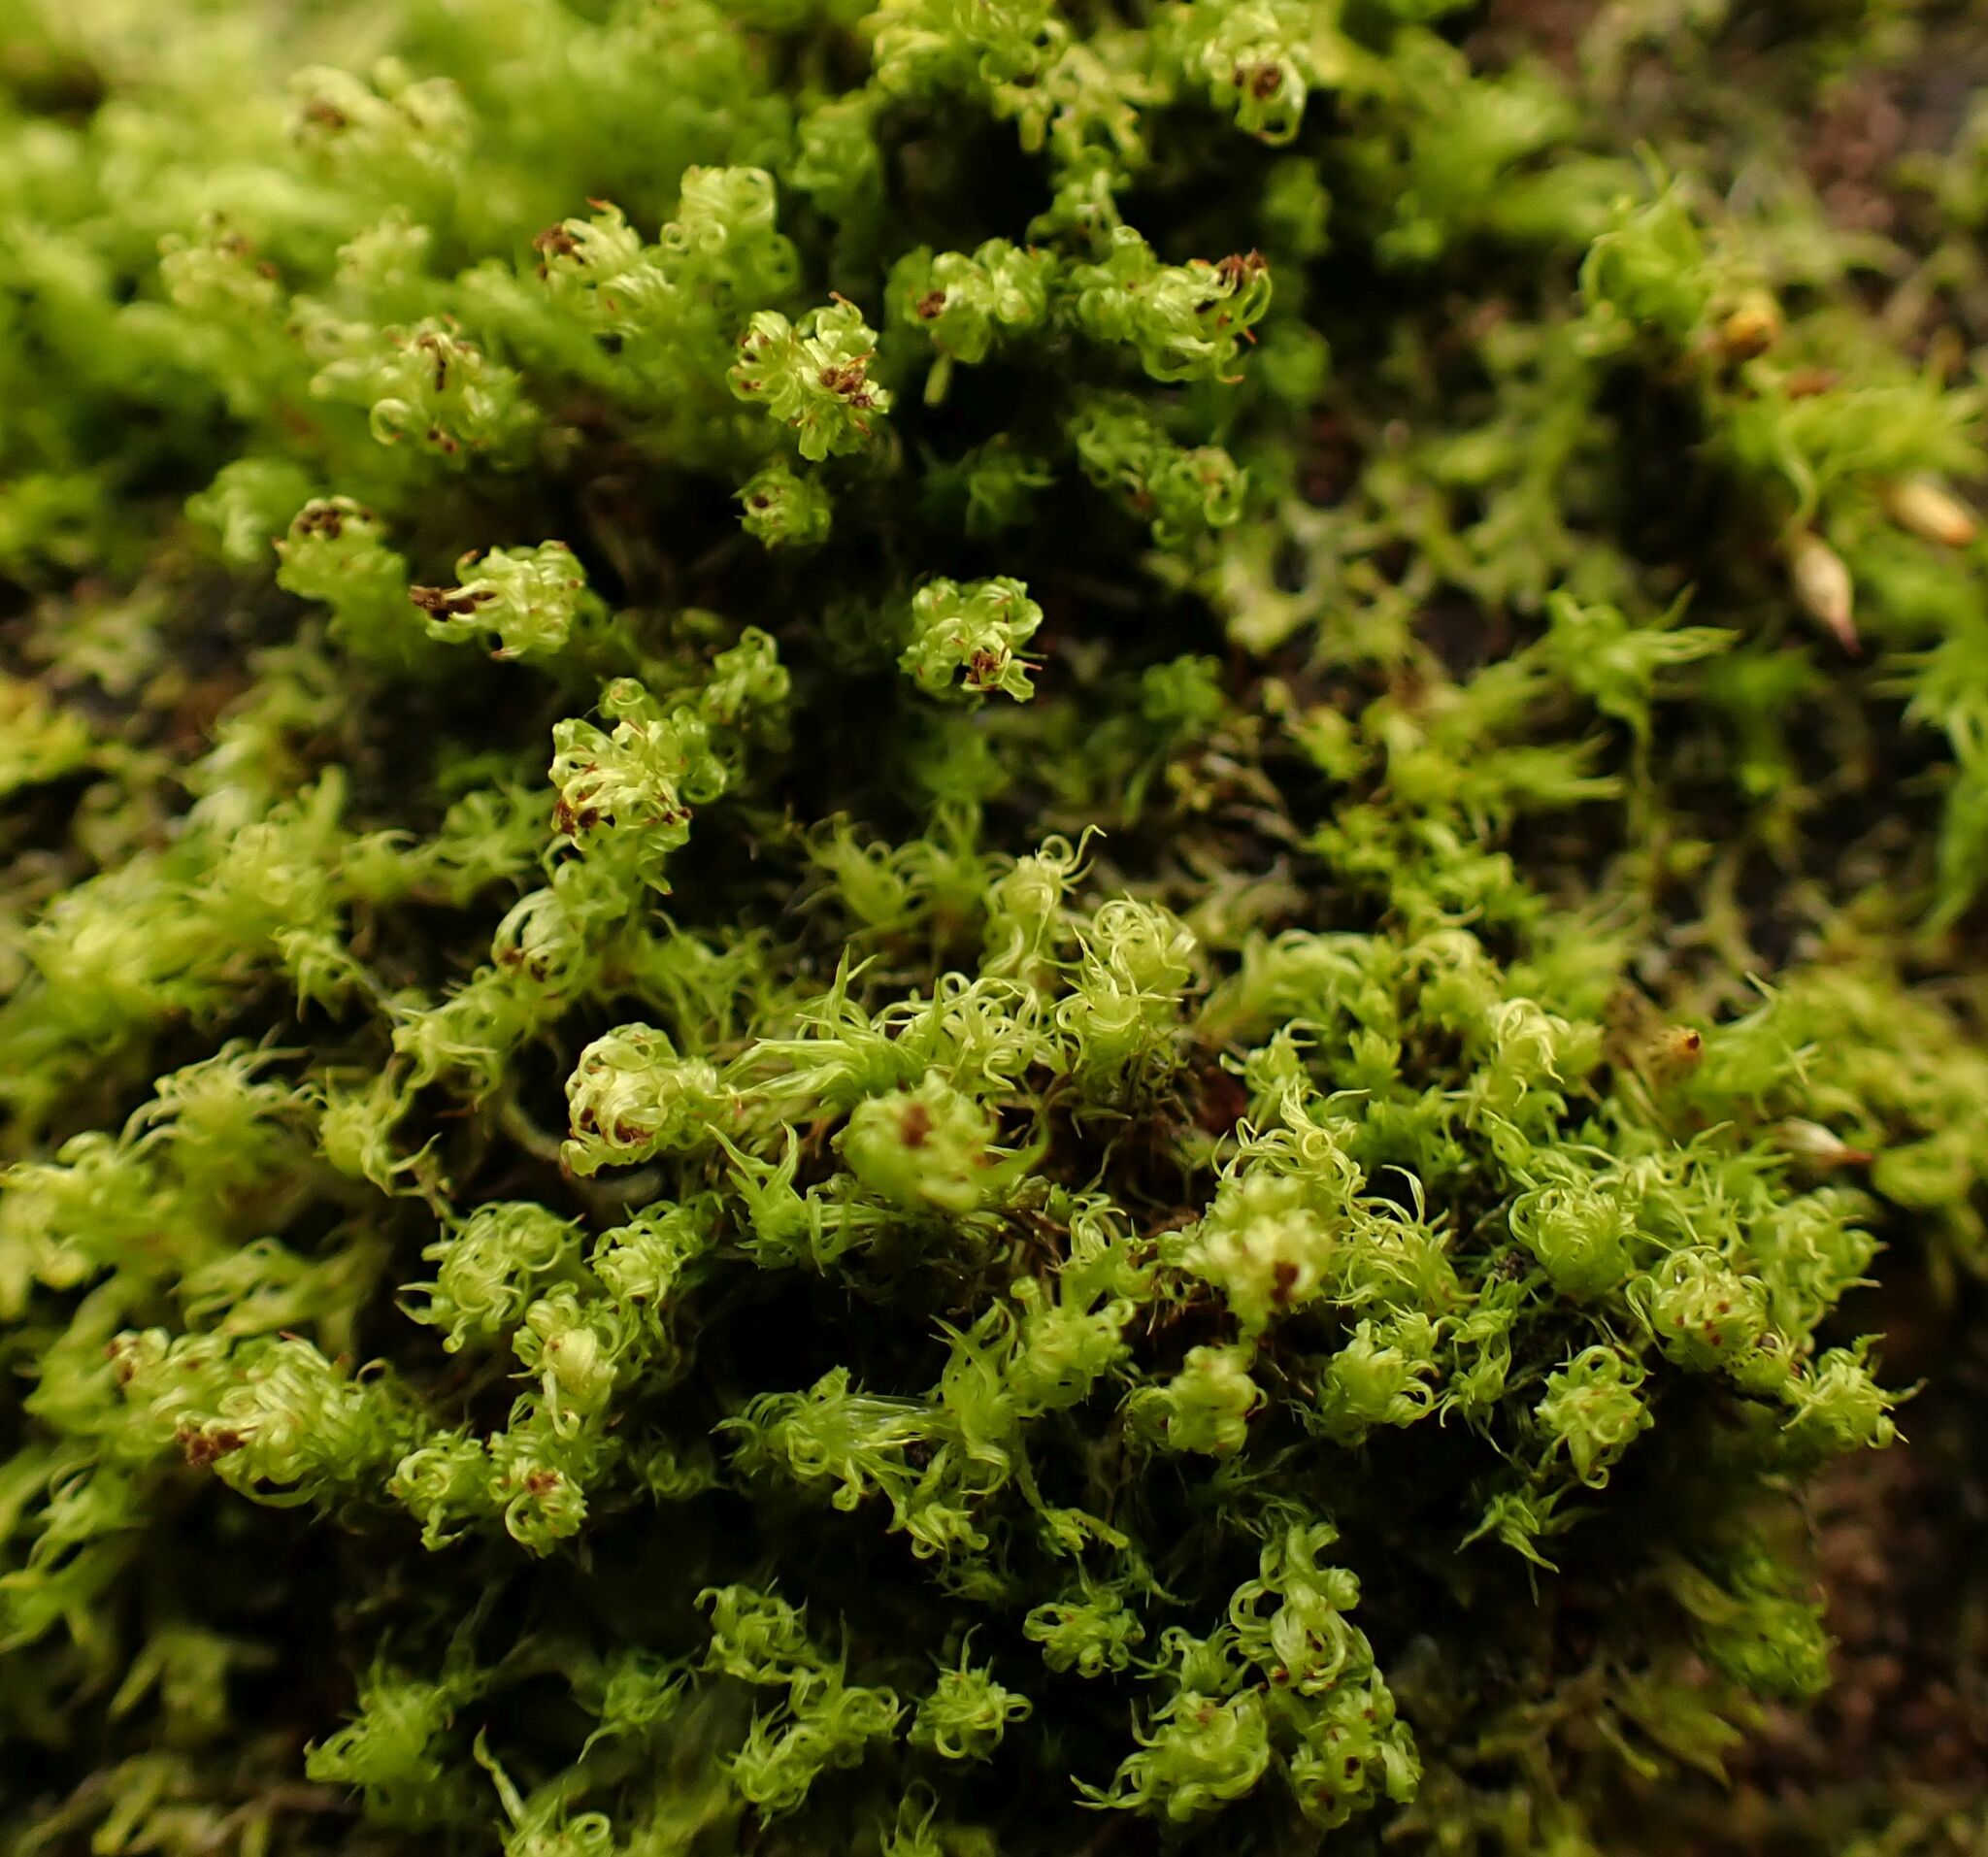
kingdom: Plantae
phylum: Bryophyta
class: Bryopsida
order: Orthotrichales
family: Orthotrichaceae
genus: Plenogemma
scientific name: Plenogemma phyllantha
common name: Frizzled pincushion
